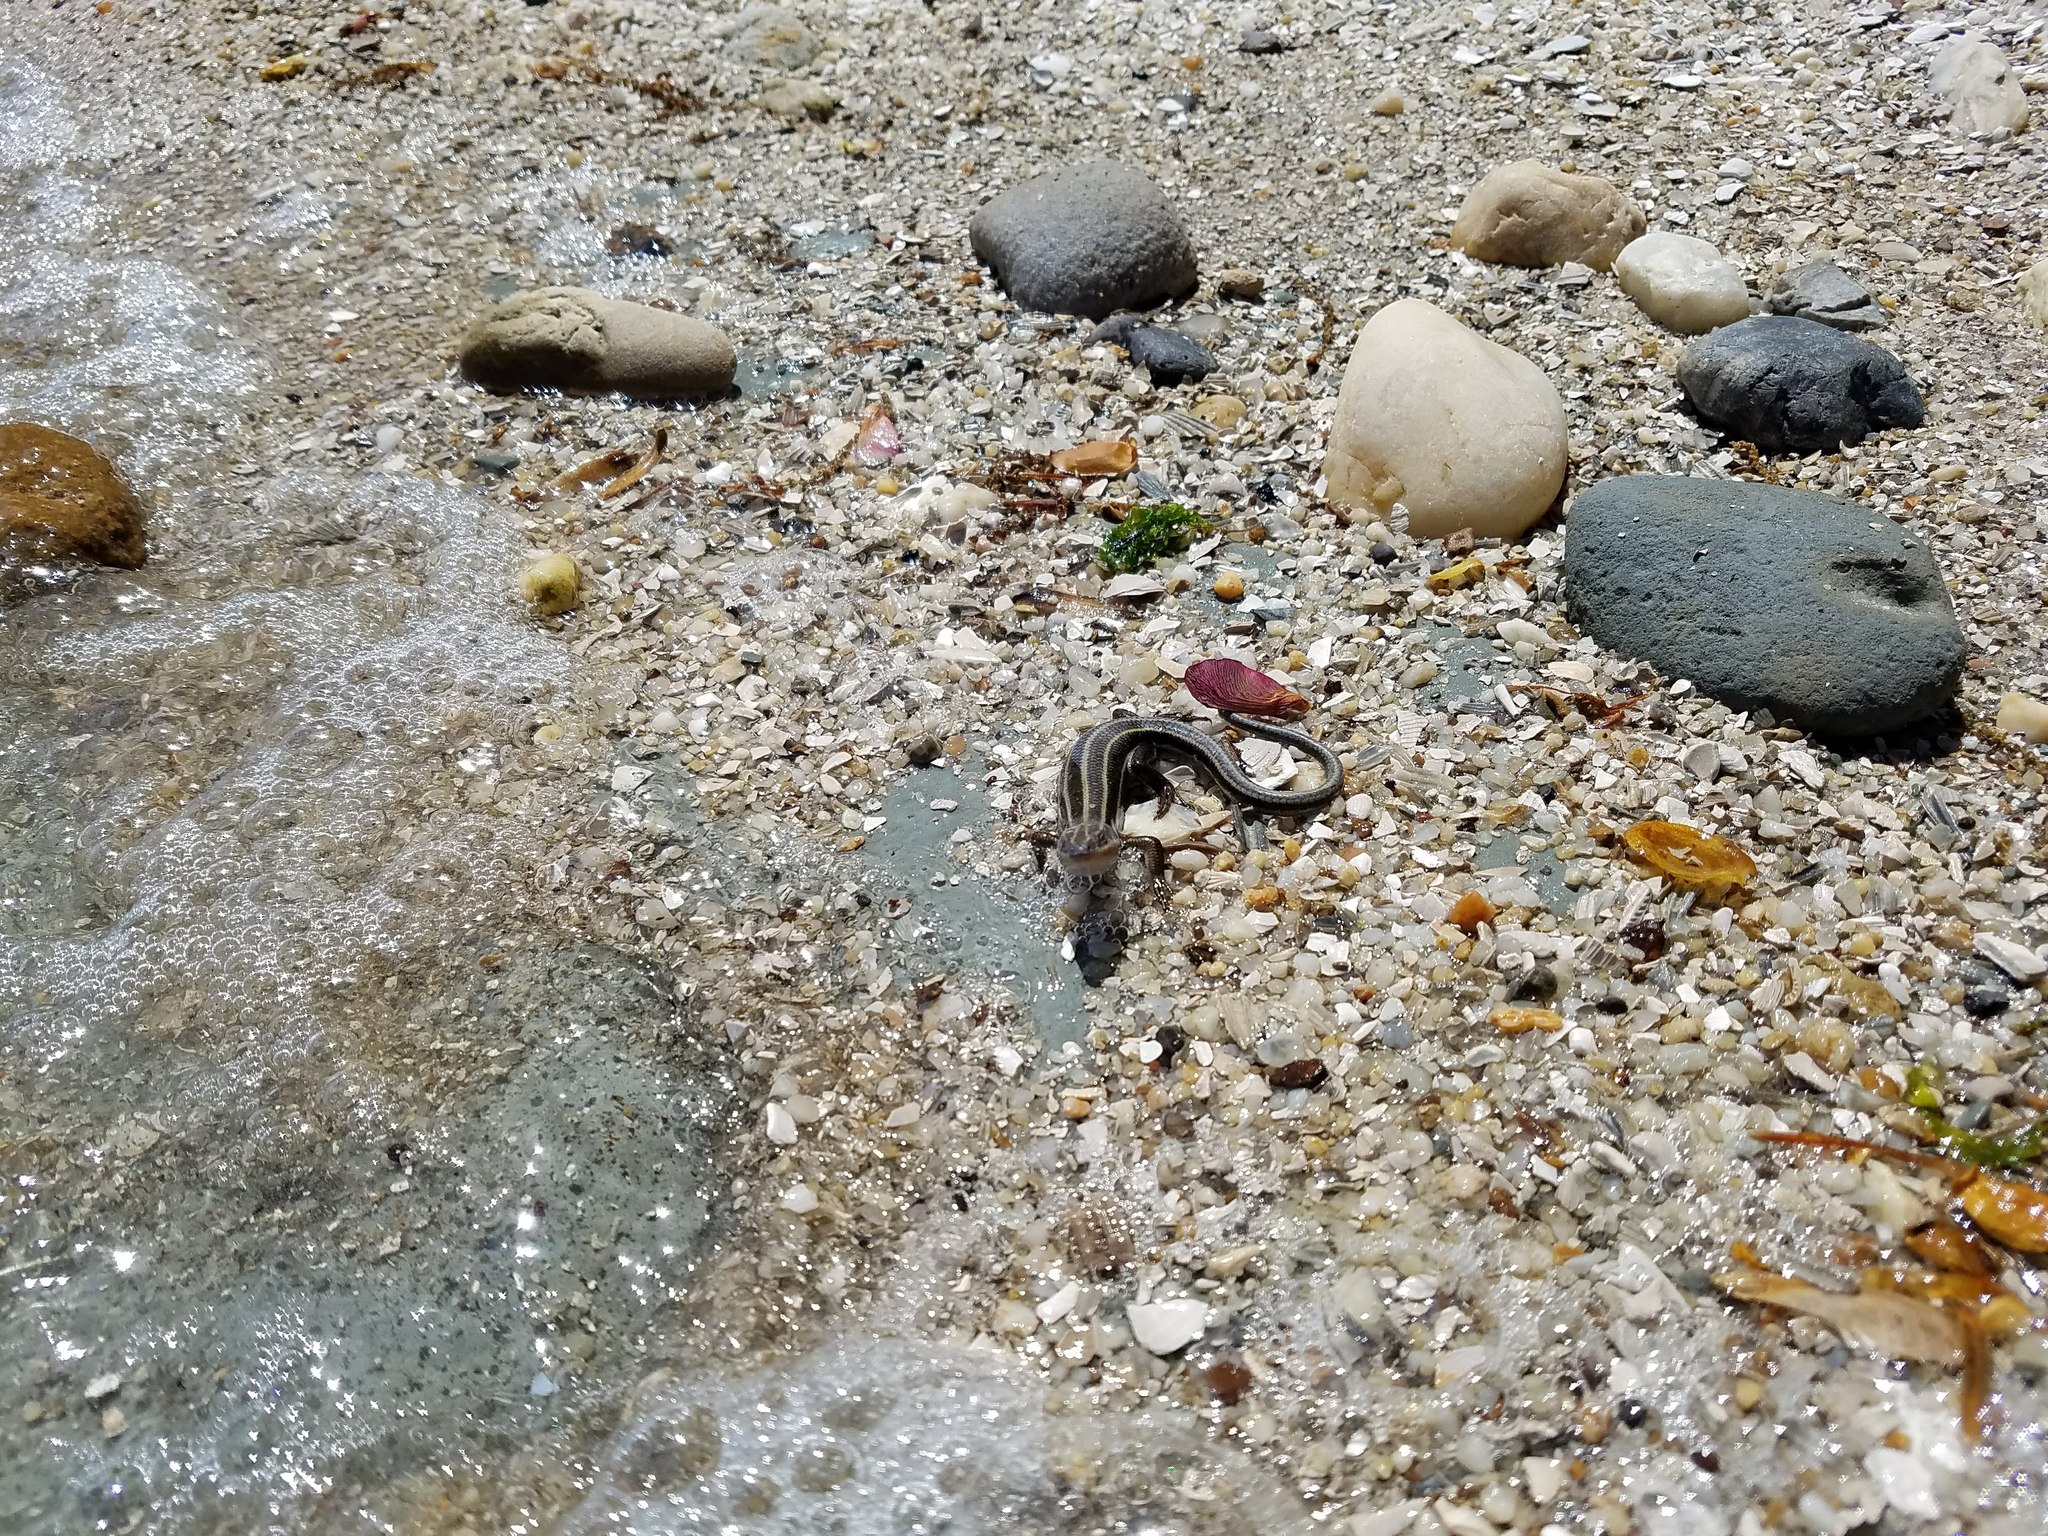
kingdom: Animalia
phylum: Chordata
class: Squamata
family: Scincidae
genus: Plestiodon
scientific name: Plestiodon fasciatus
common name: Five-lined skink
